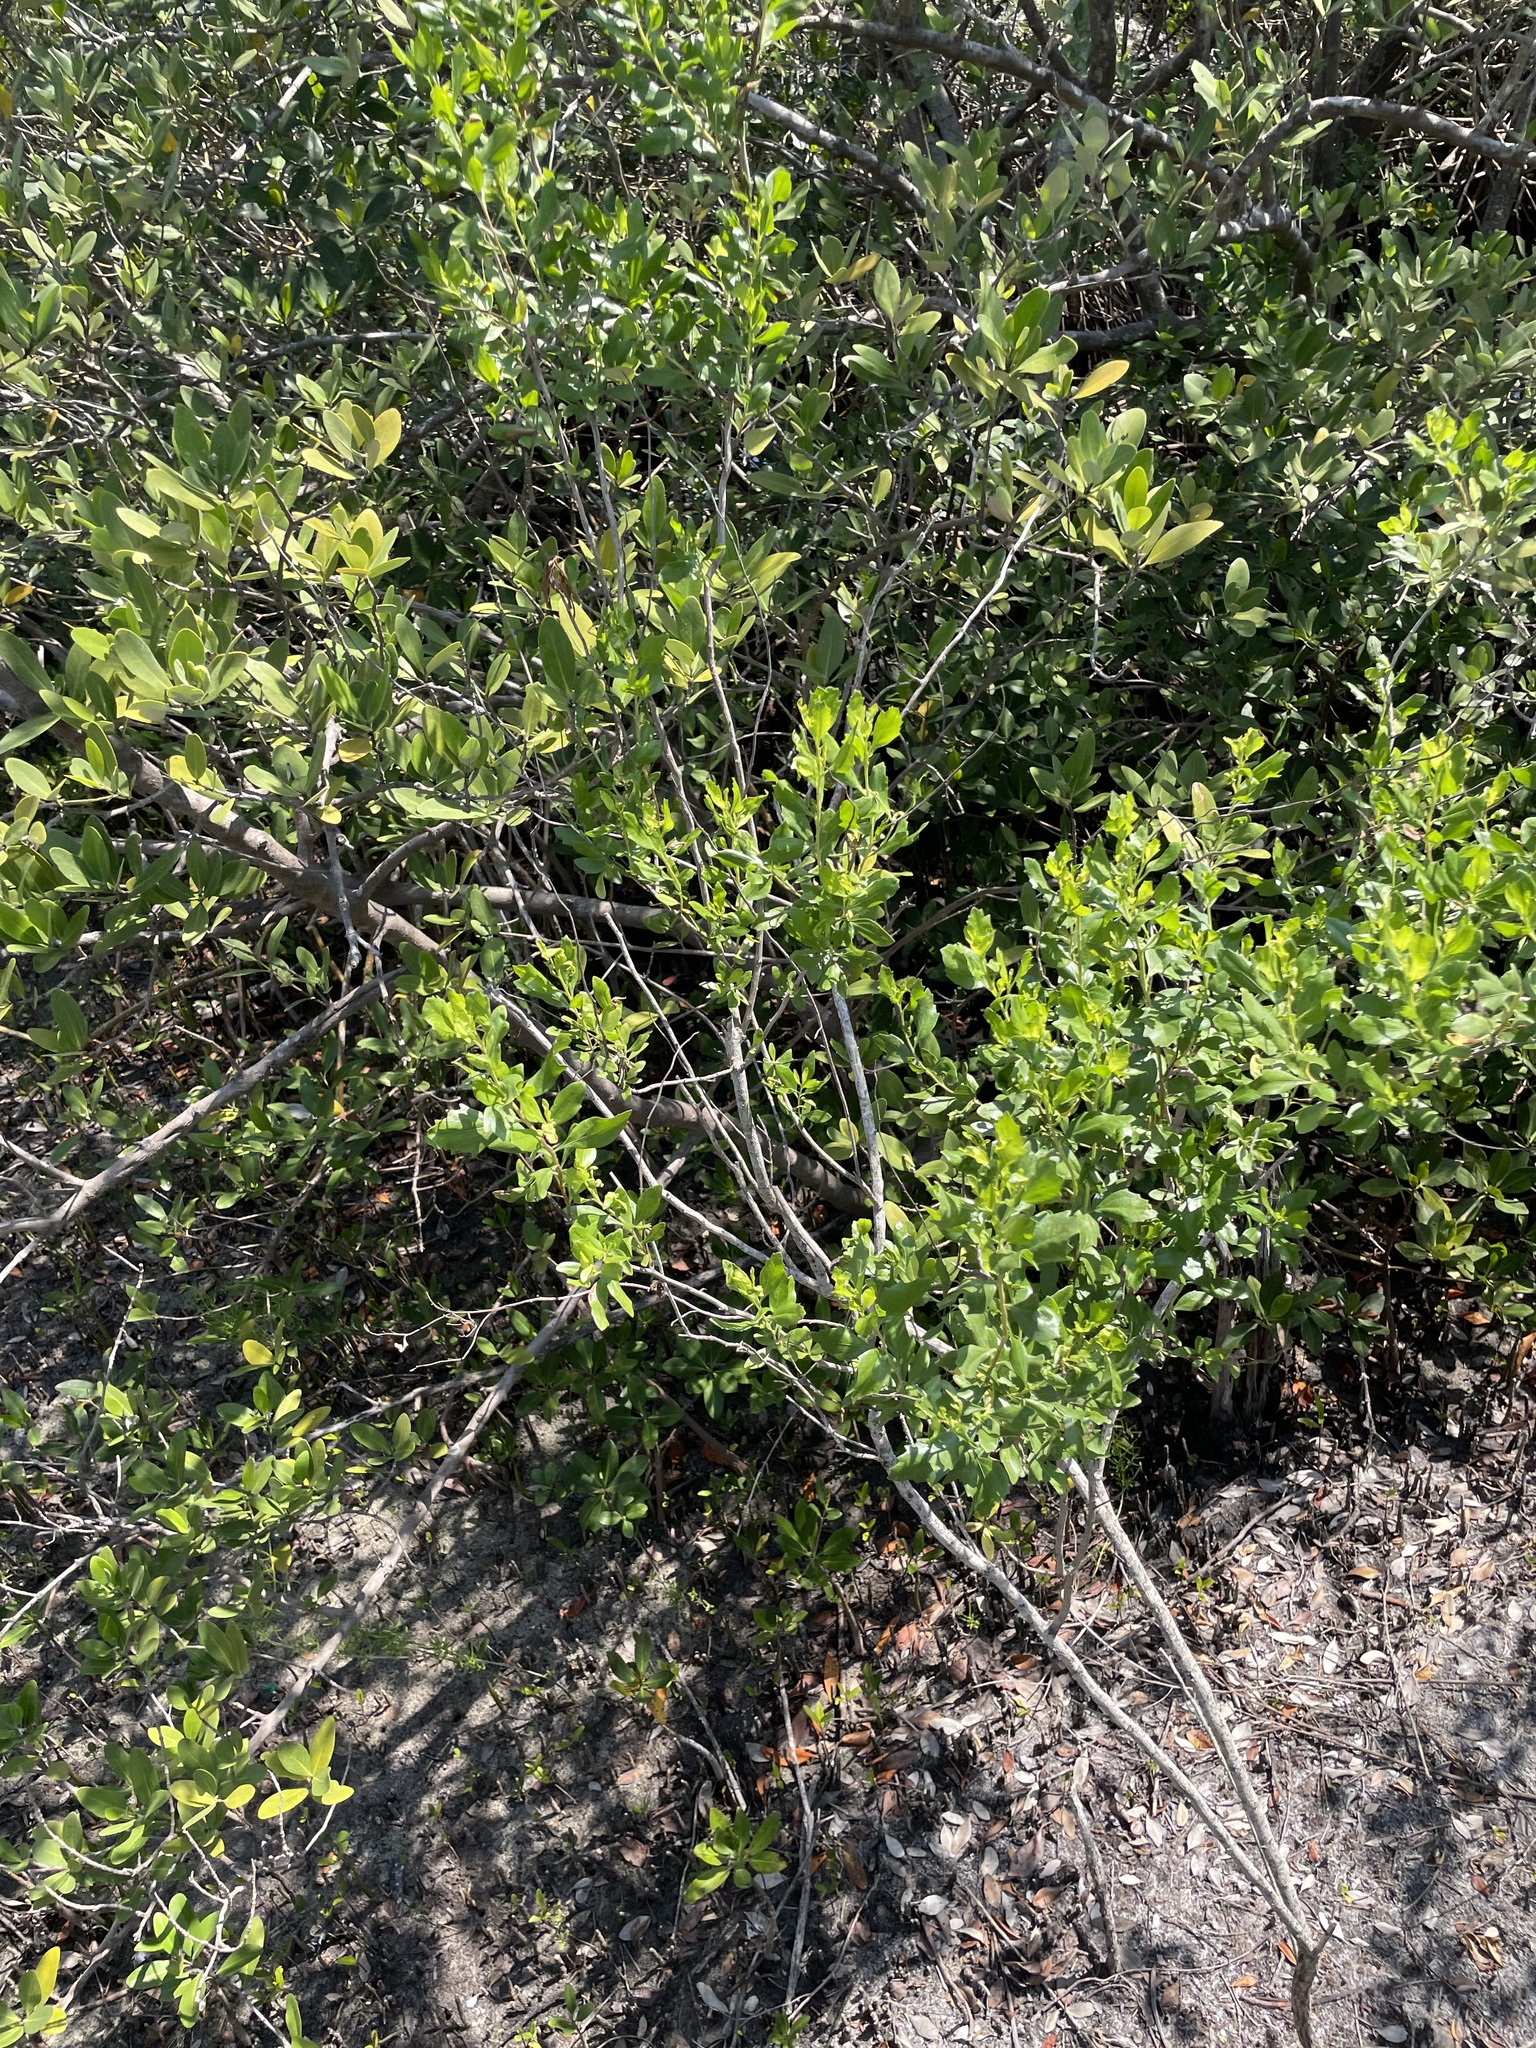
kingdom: Plantae
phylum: Tracheophyta
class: Magnoliopsida
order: Asterales
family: Asteraceae
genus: Baccharis
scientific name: Baccharis halimifolia
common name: Eastern baccharis
